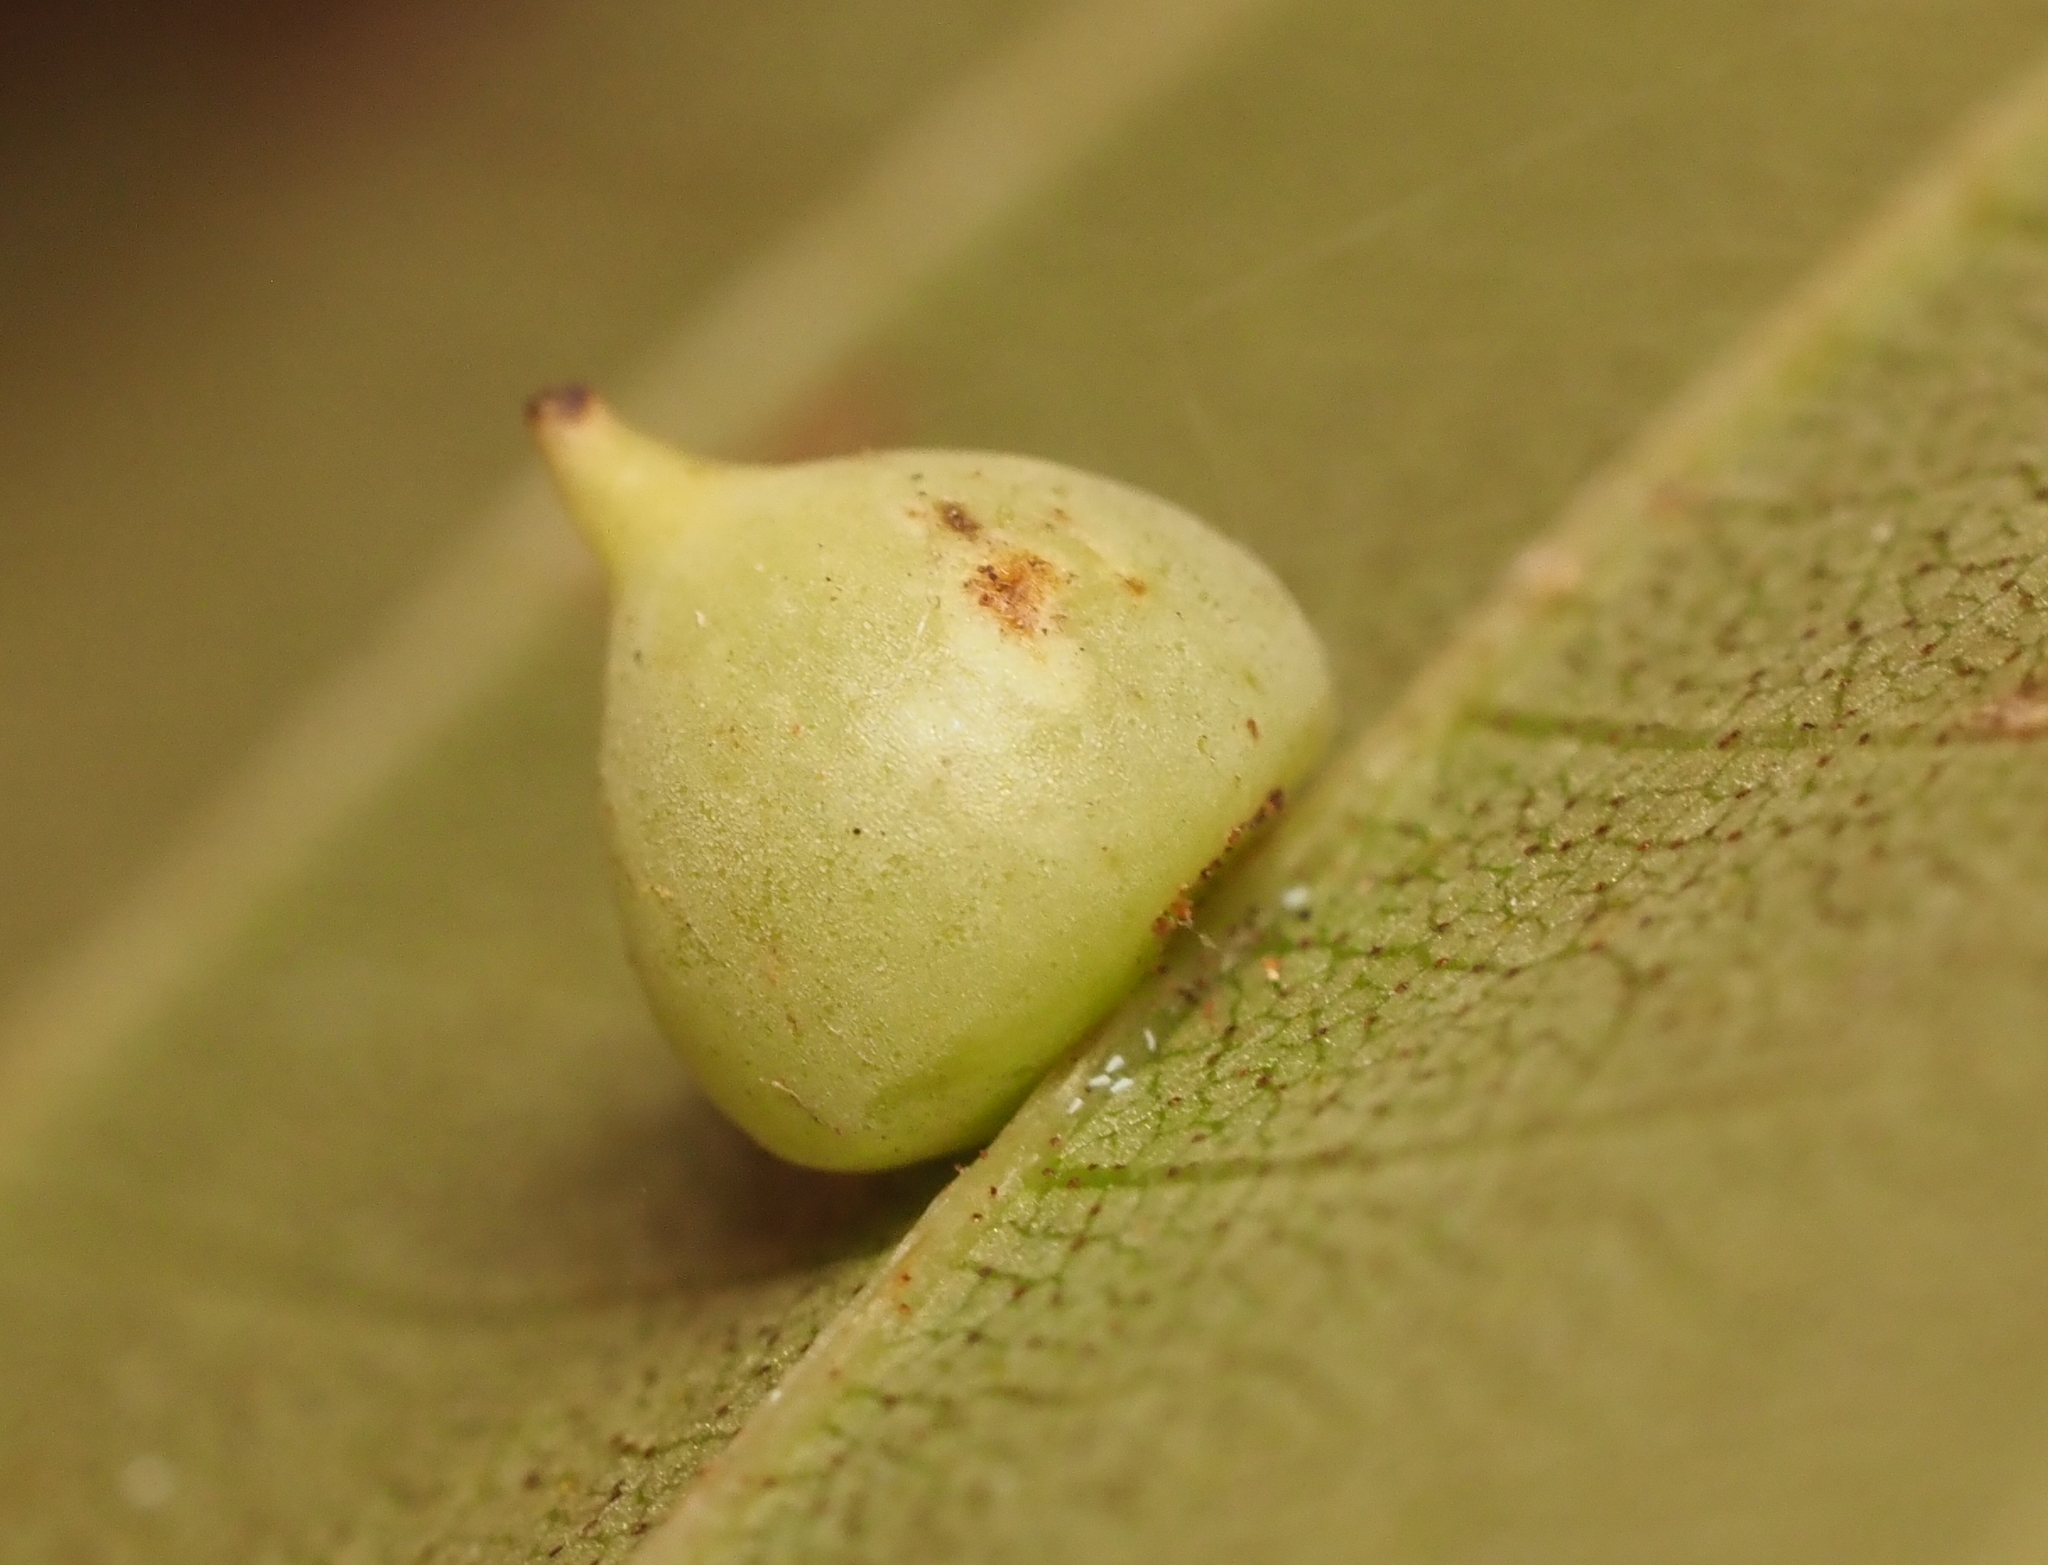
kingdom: Animalia
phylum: Arthropoda
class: Insecta
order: Diptera
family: Cecidomyiidae
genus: Caryomyia
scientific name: Caryomyia caryaecola
